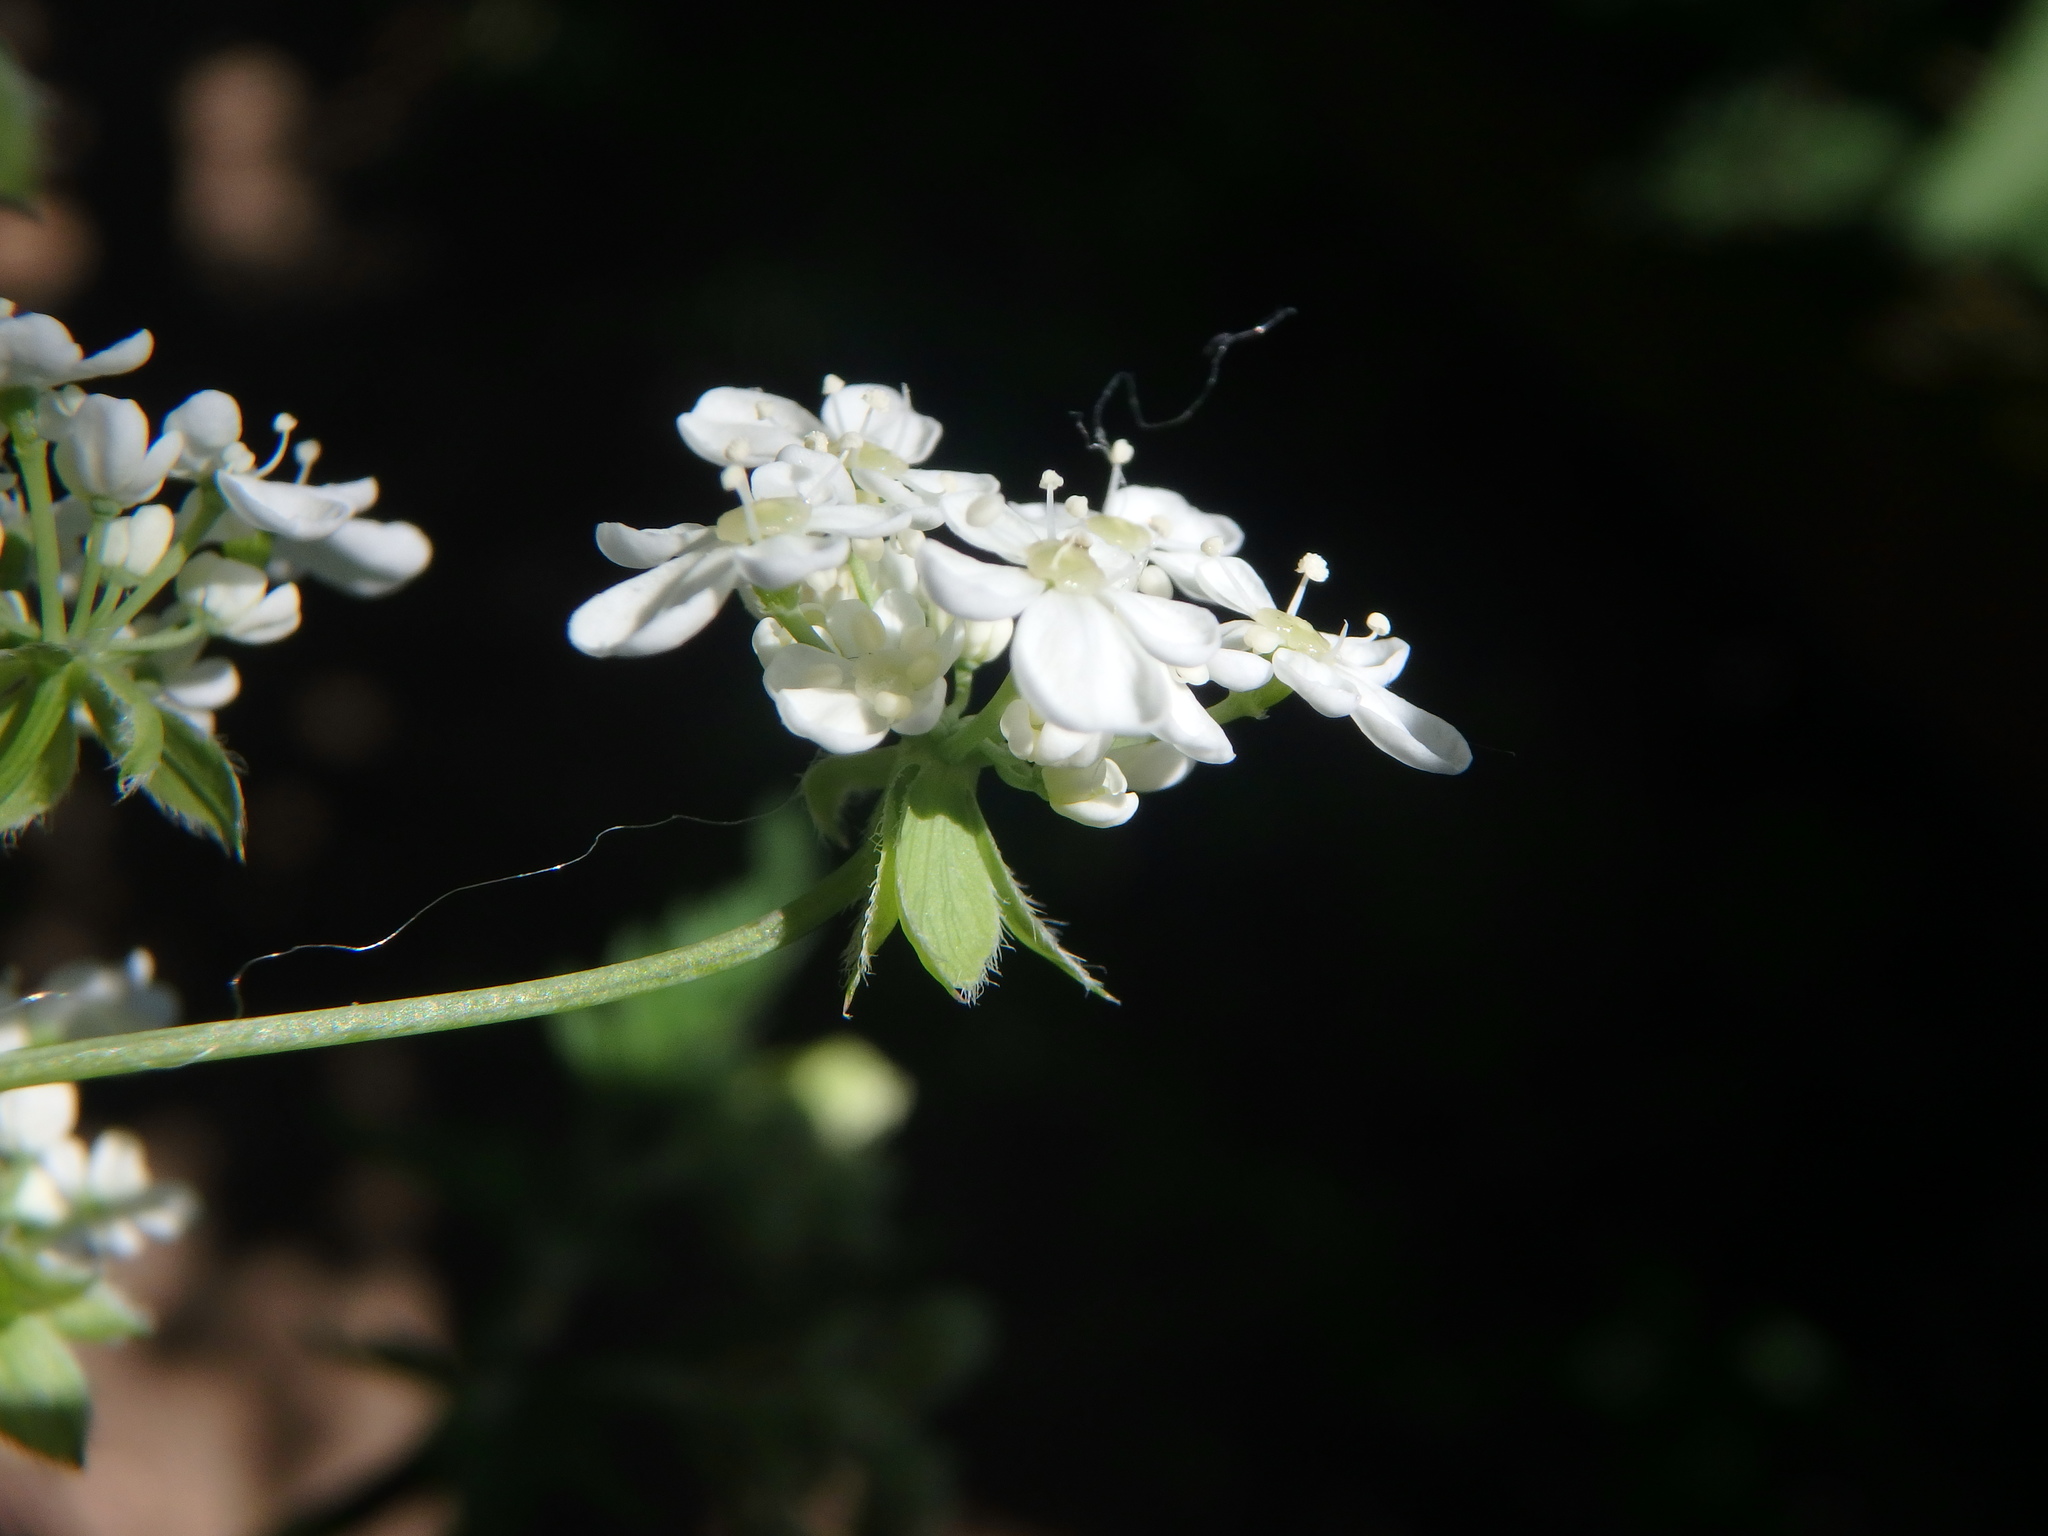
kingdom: Plantae
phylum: Tracheophyta
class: Magnoliopsida
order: Apiales
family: Apiaceae
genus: Anthriscus
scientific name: Anthriscus sylvestris
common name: Cow parsley
